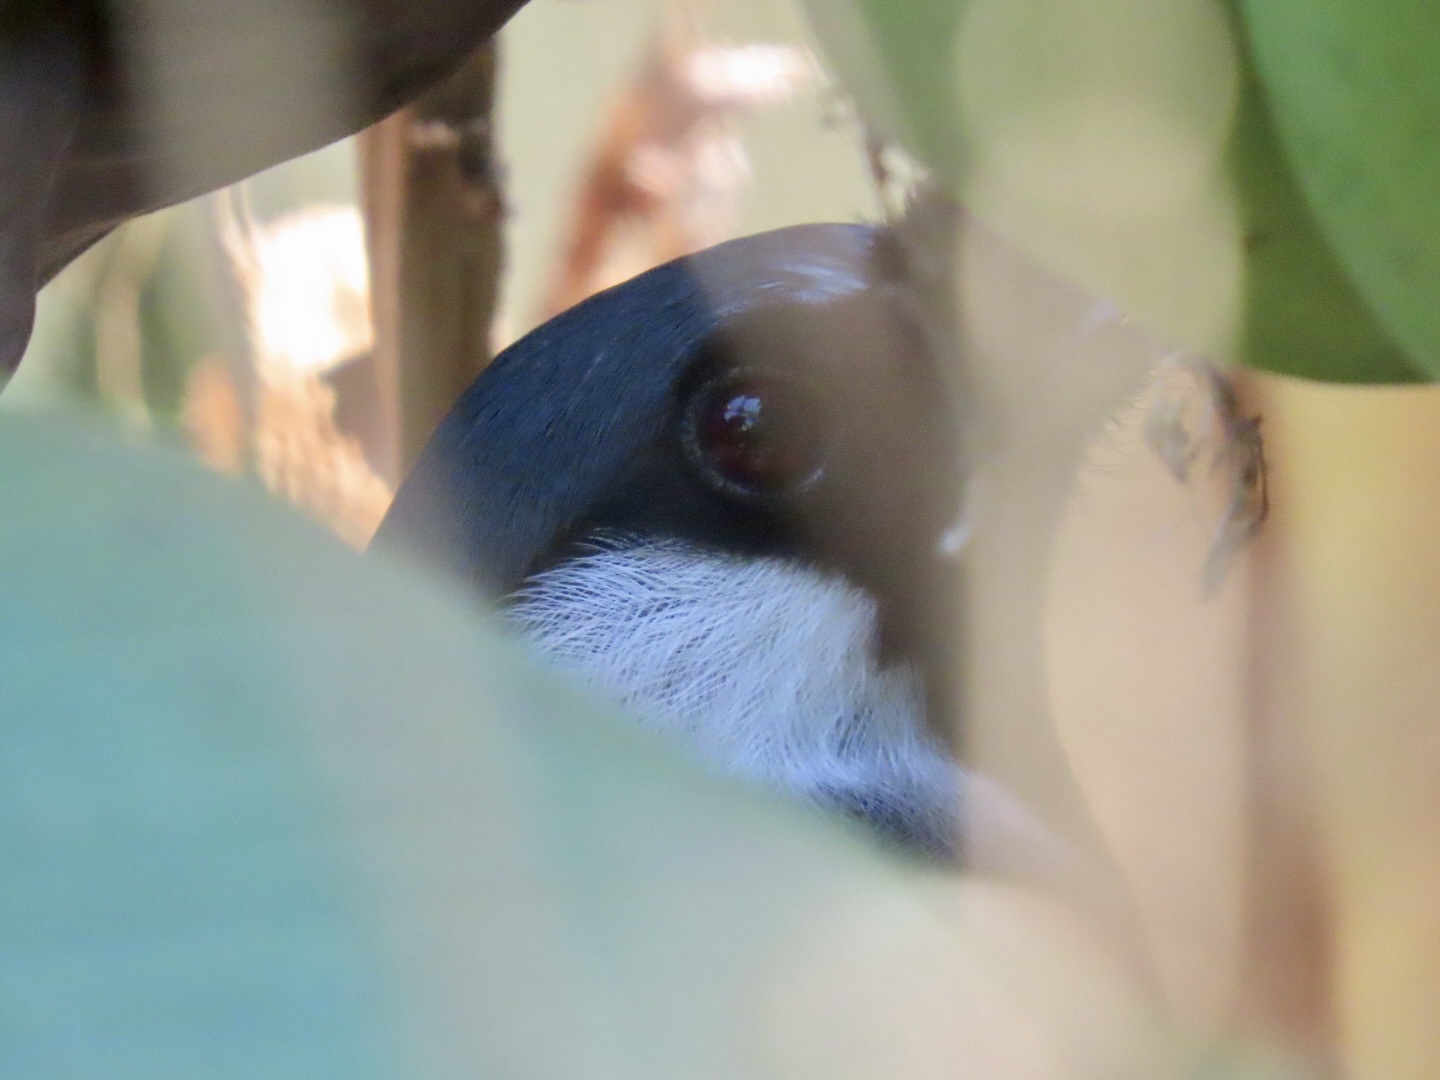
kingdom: Animalia
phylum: Chordata
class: Aves
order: Passeriformes
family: Leiothrichidae
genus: Garrulax
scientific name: Garrulax chinensis
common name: Black-throated laughingthrush
